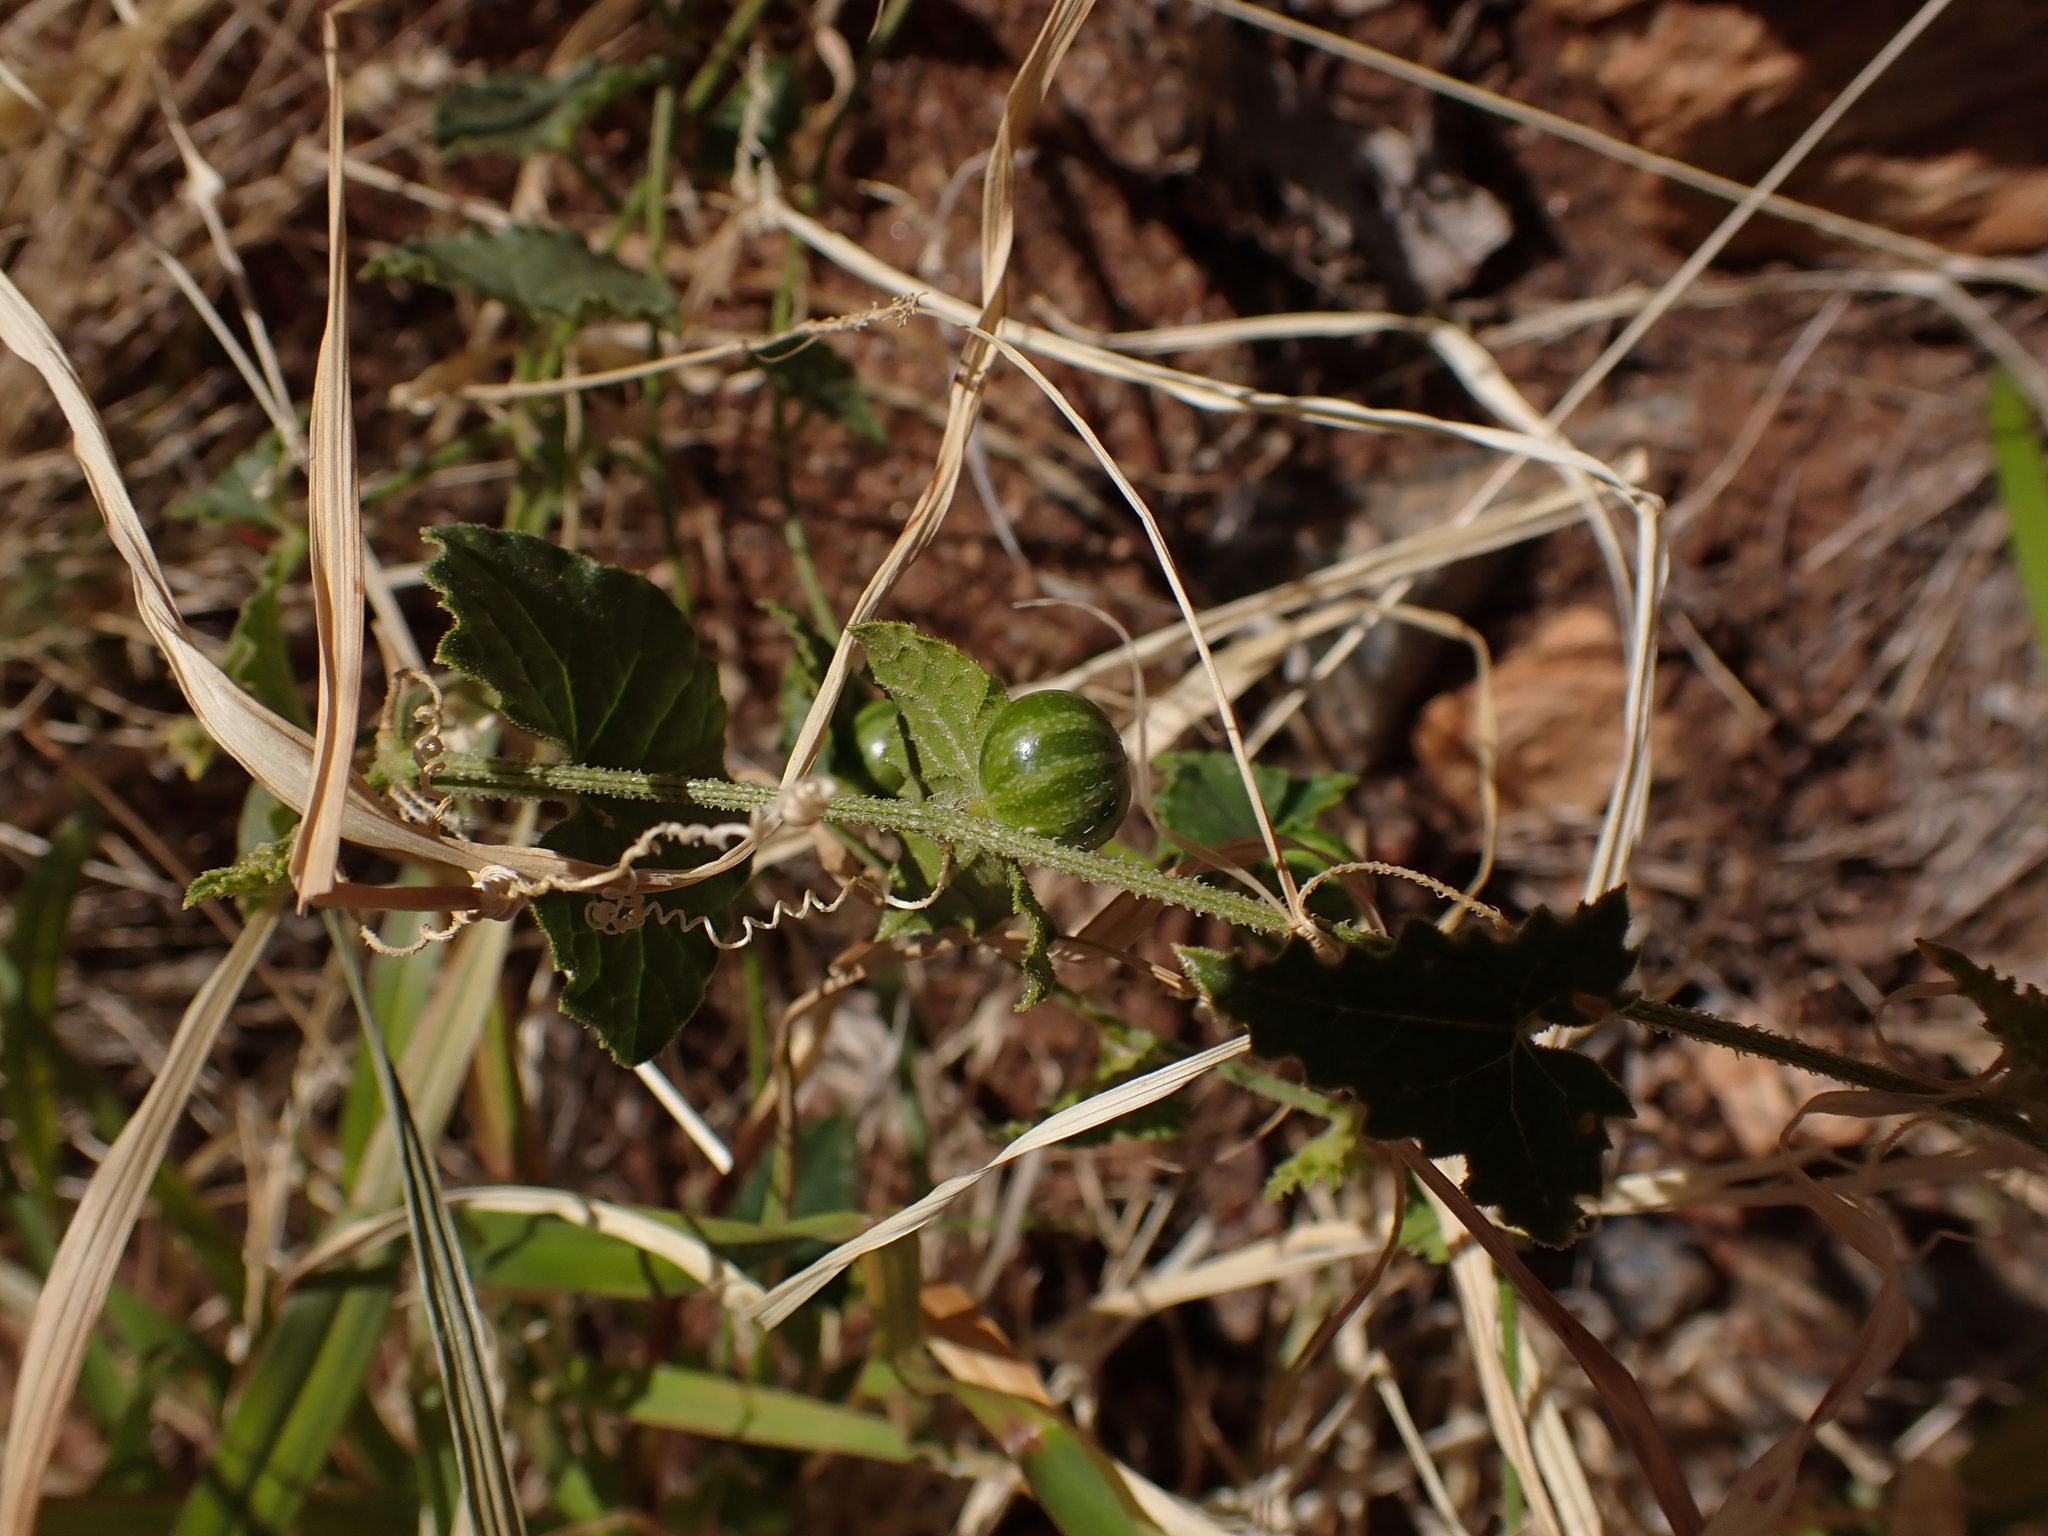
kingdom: Plantae
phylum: Tracheophyta
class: Magnoliopsida
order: Cucurbitales
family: Cucurbitaceae
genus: Cucumis
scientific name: Cucumis argenteus
